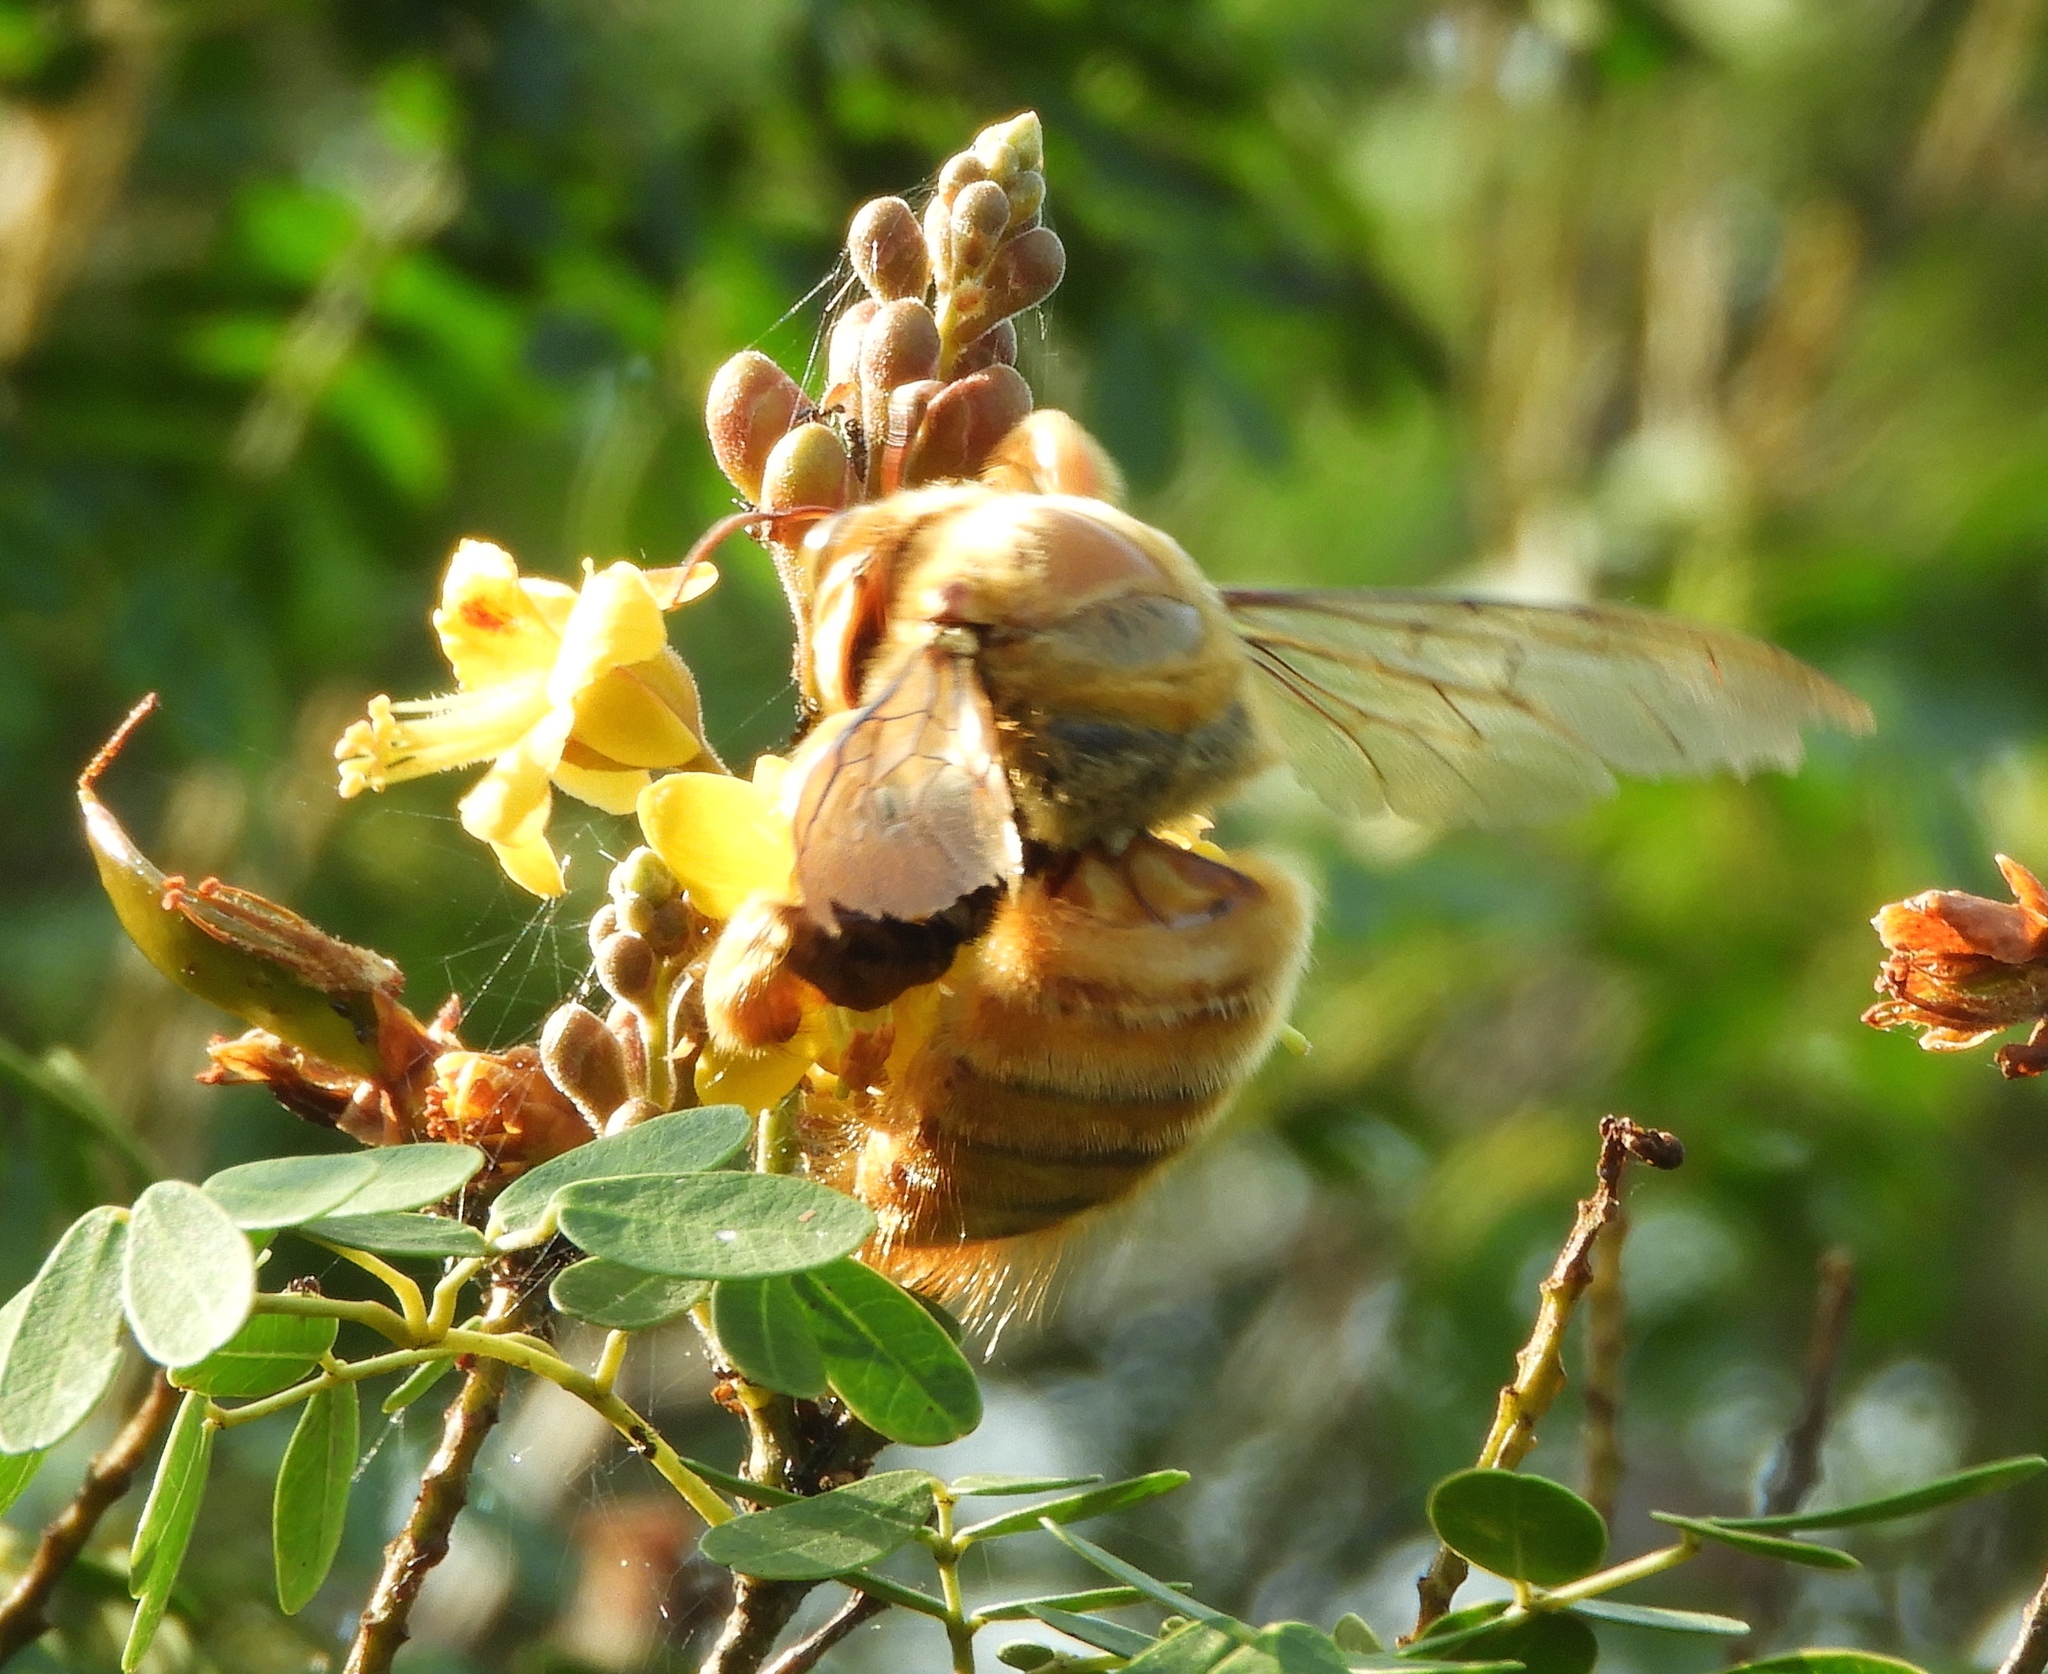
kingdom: Animalia
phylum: Arthropoda
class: Insecta
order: Hymenoptera
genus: Neoxylocopa
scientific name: Neoxylocopa
